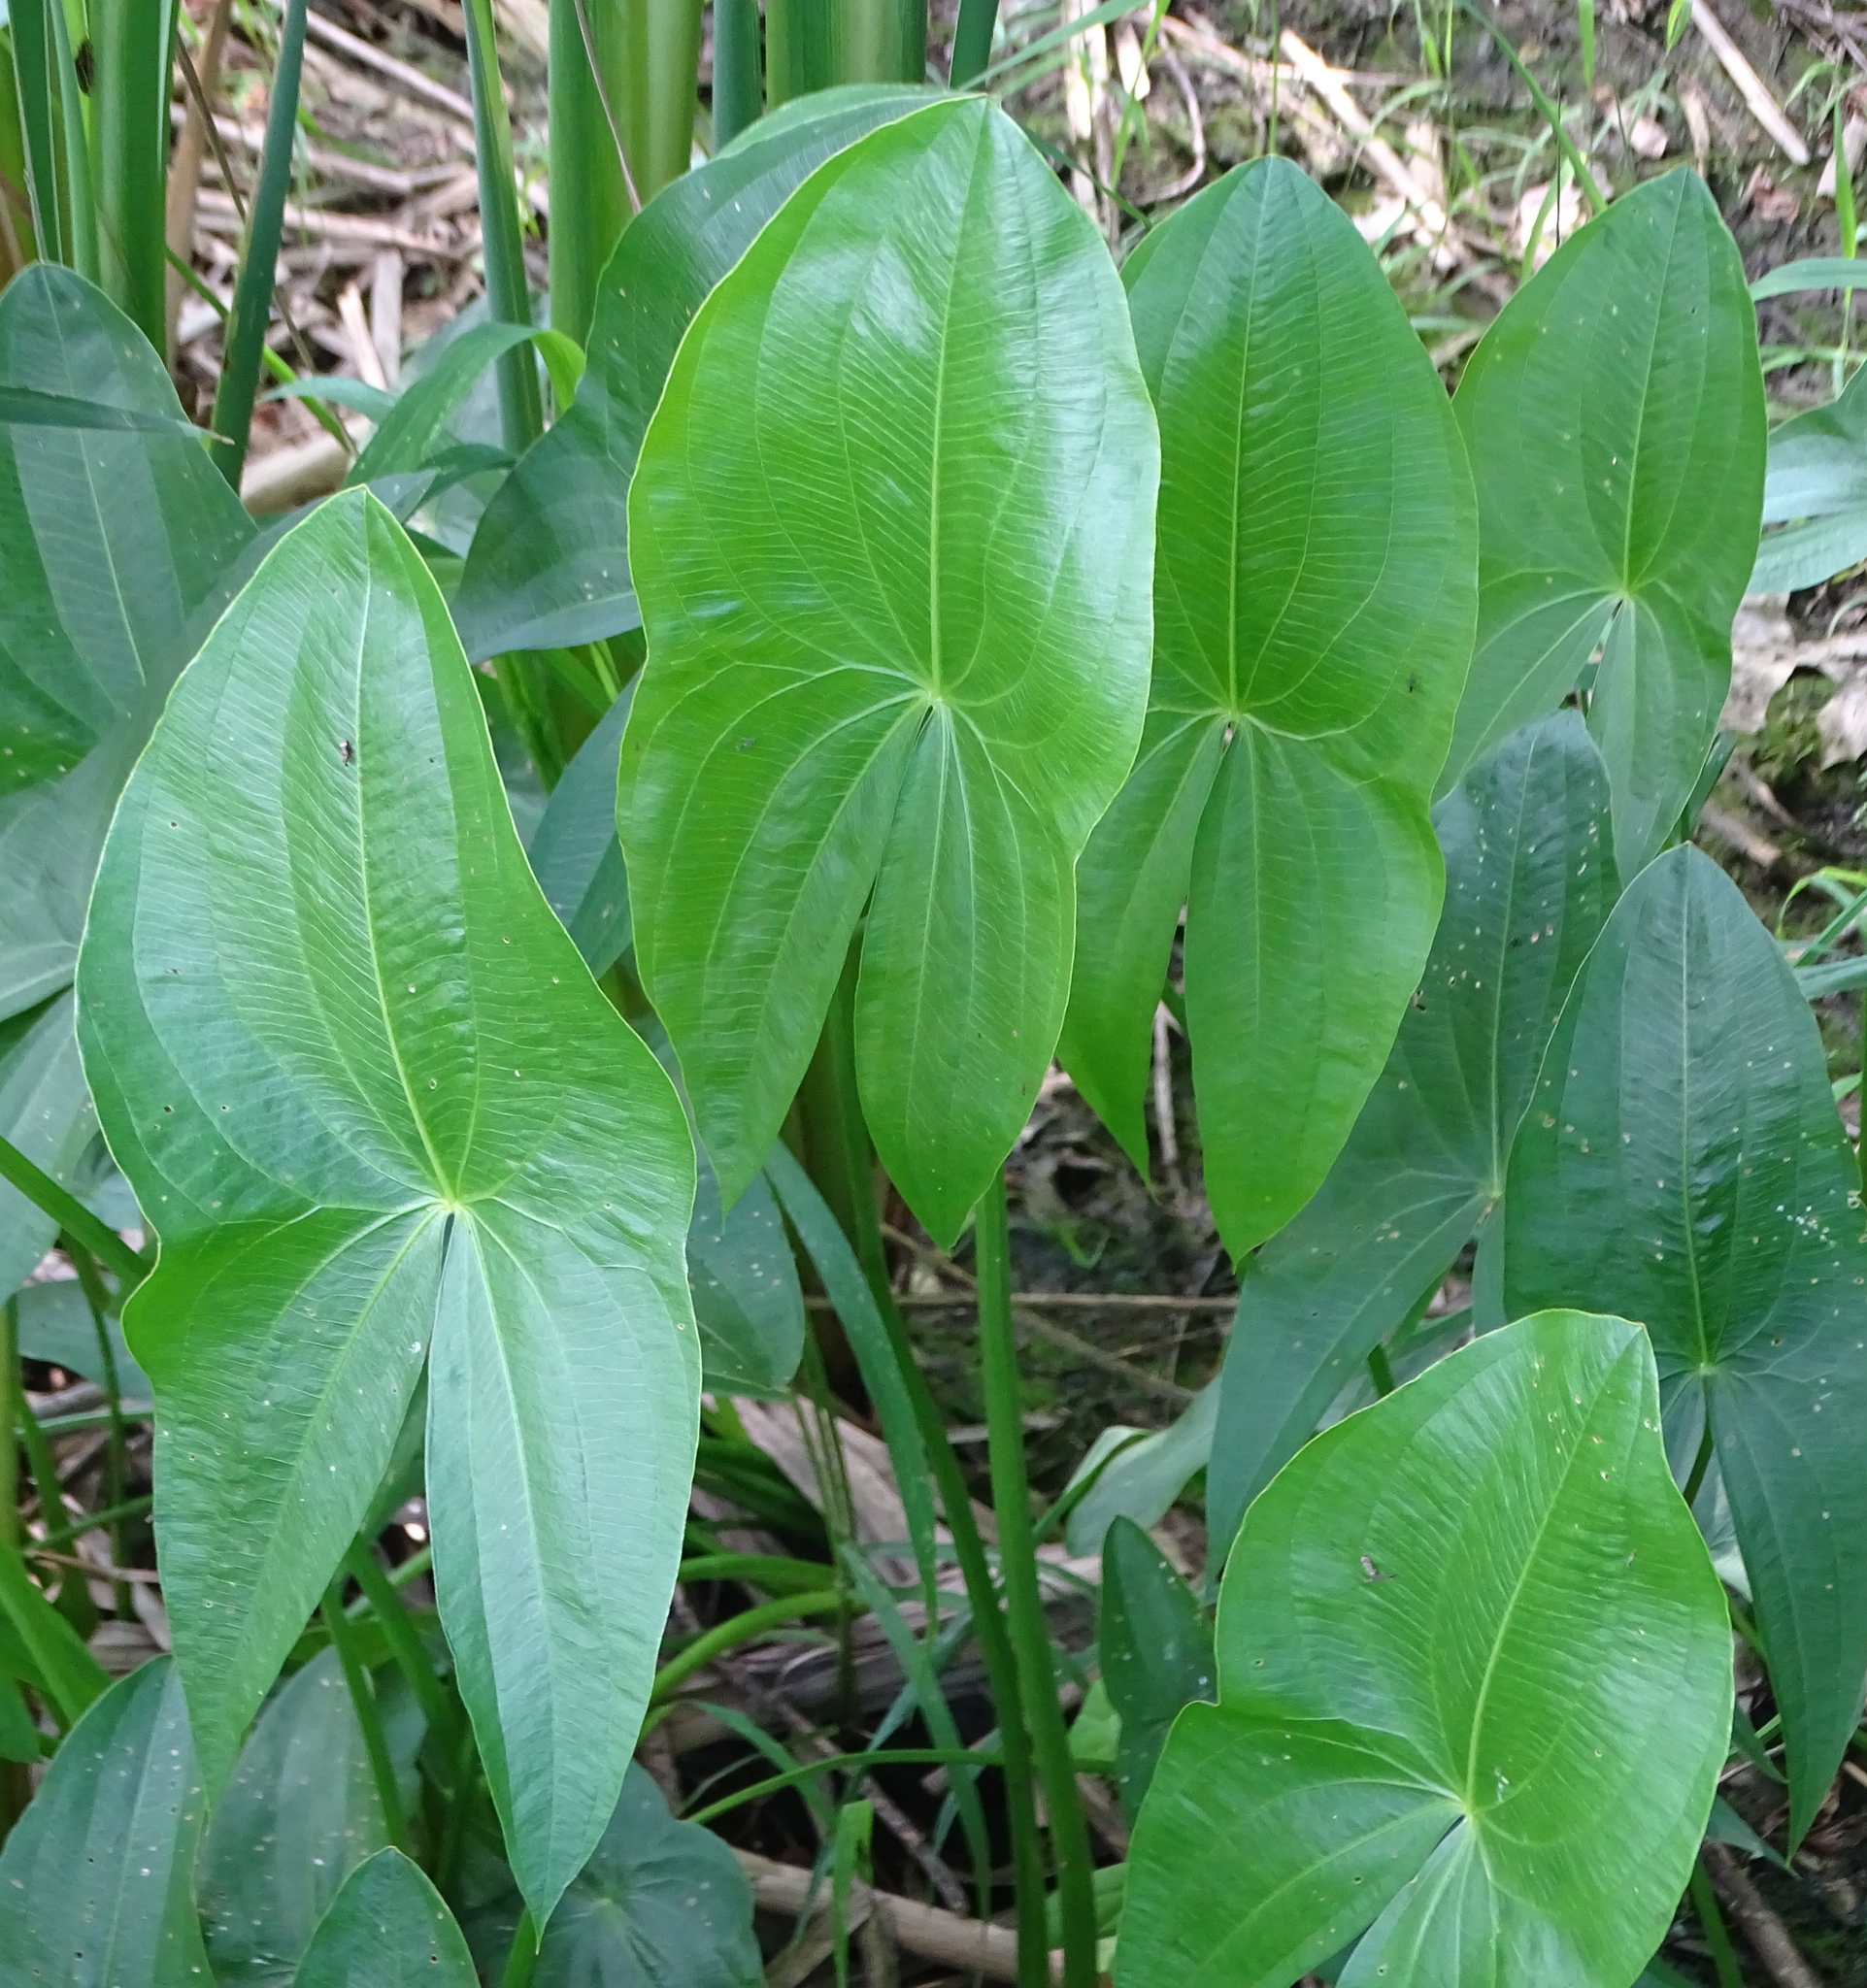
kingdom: Plantae
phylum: Tracheophyta
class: Liliopsida
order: Alismatales
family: Alismataceae
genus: Sagittaria
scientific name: Sagittaria latifolia
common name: Duck-potato
